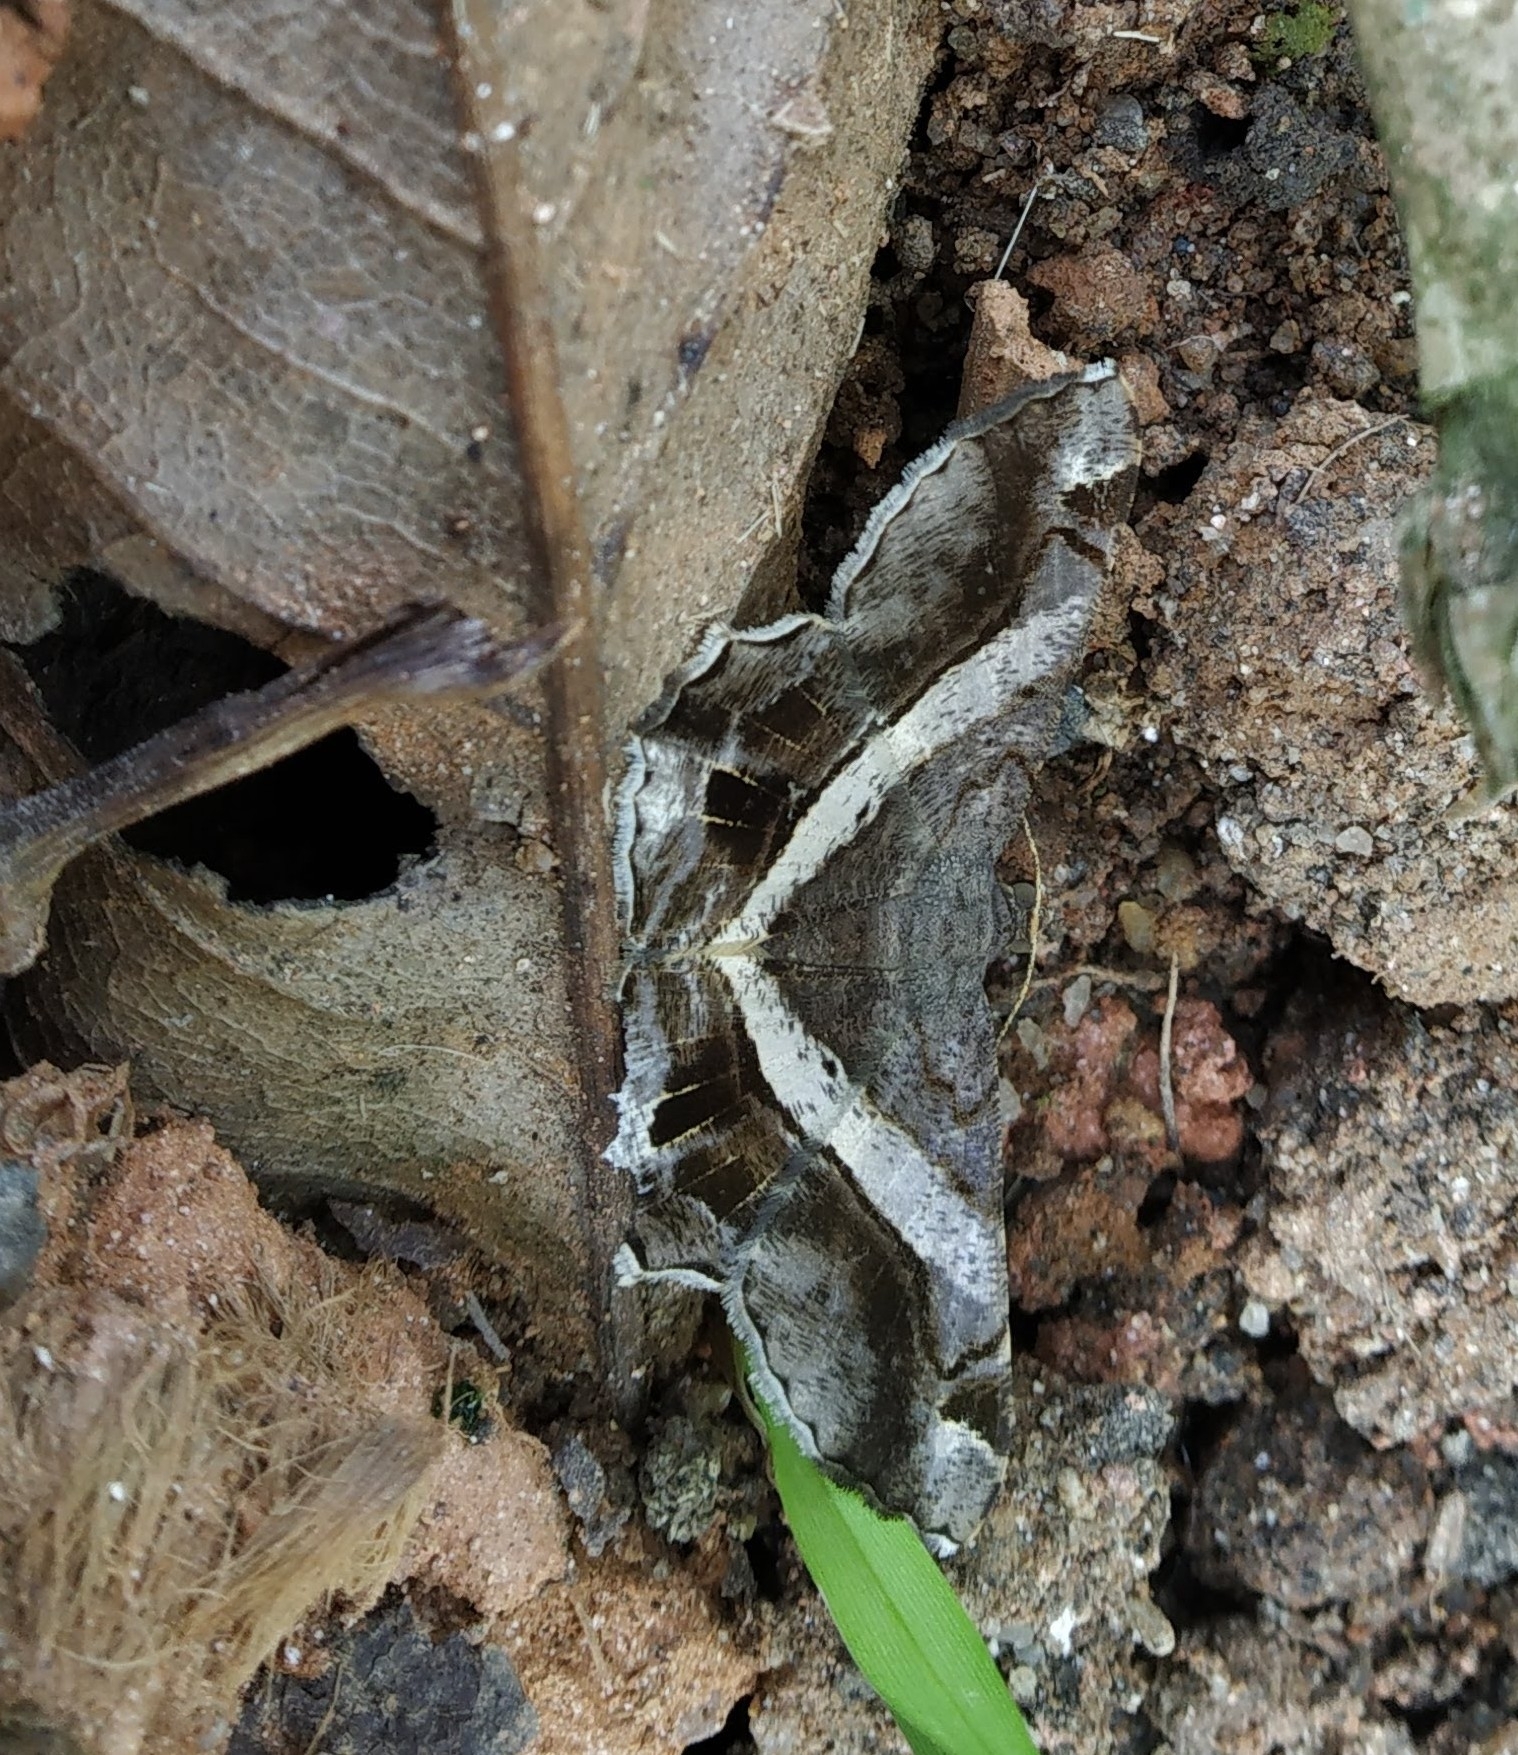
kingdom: Animalia
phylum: Arthropoda
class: Insecta
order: Lepidoptera
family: Geometridae
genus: Chiasmia
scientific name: Chiasmia nora
